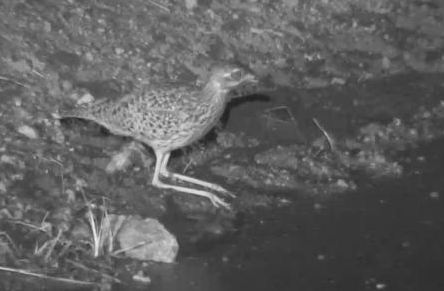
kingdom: Animalia
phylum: Chordata
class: Aves
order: Charadriiformes
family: Burhinidae
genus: Burhinus
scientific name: Burhinus capensis
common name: Spotted thick-knee
